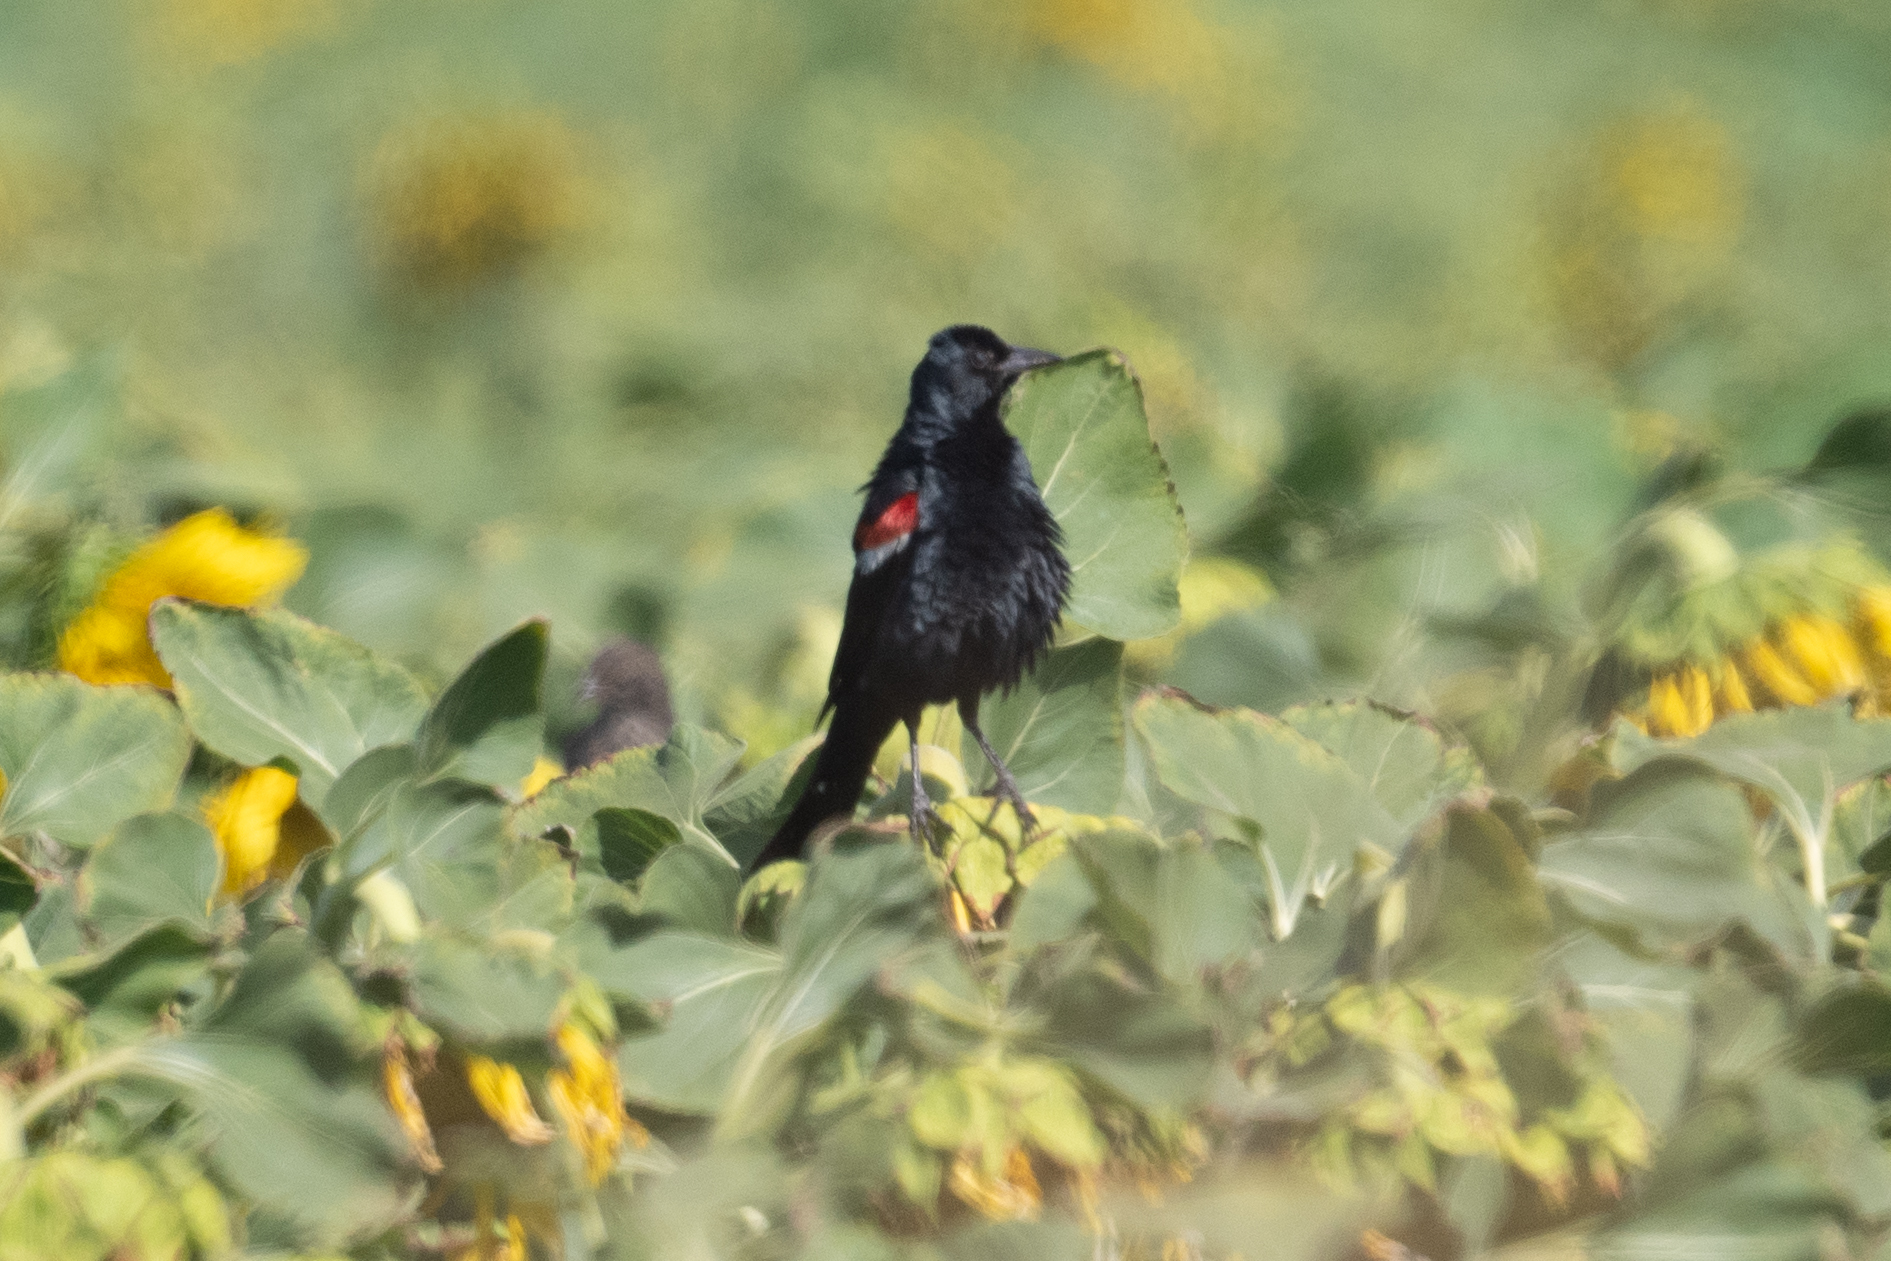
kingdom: Animalia
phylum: Chordata
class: Aves
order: Passeriformes
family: Icteridae
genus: Agelaius
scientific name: Agelaius tricolor
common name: Tricolored blackbird
